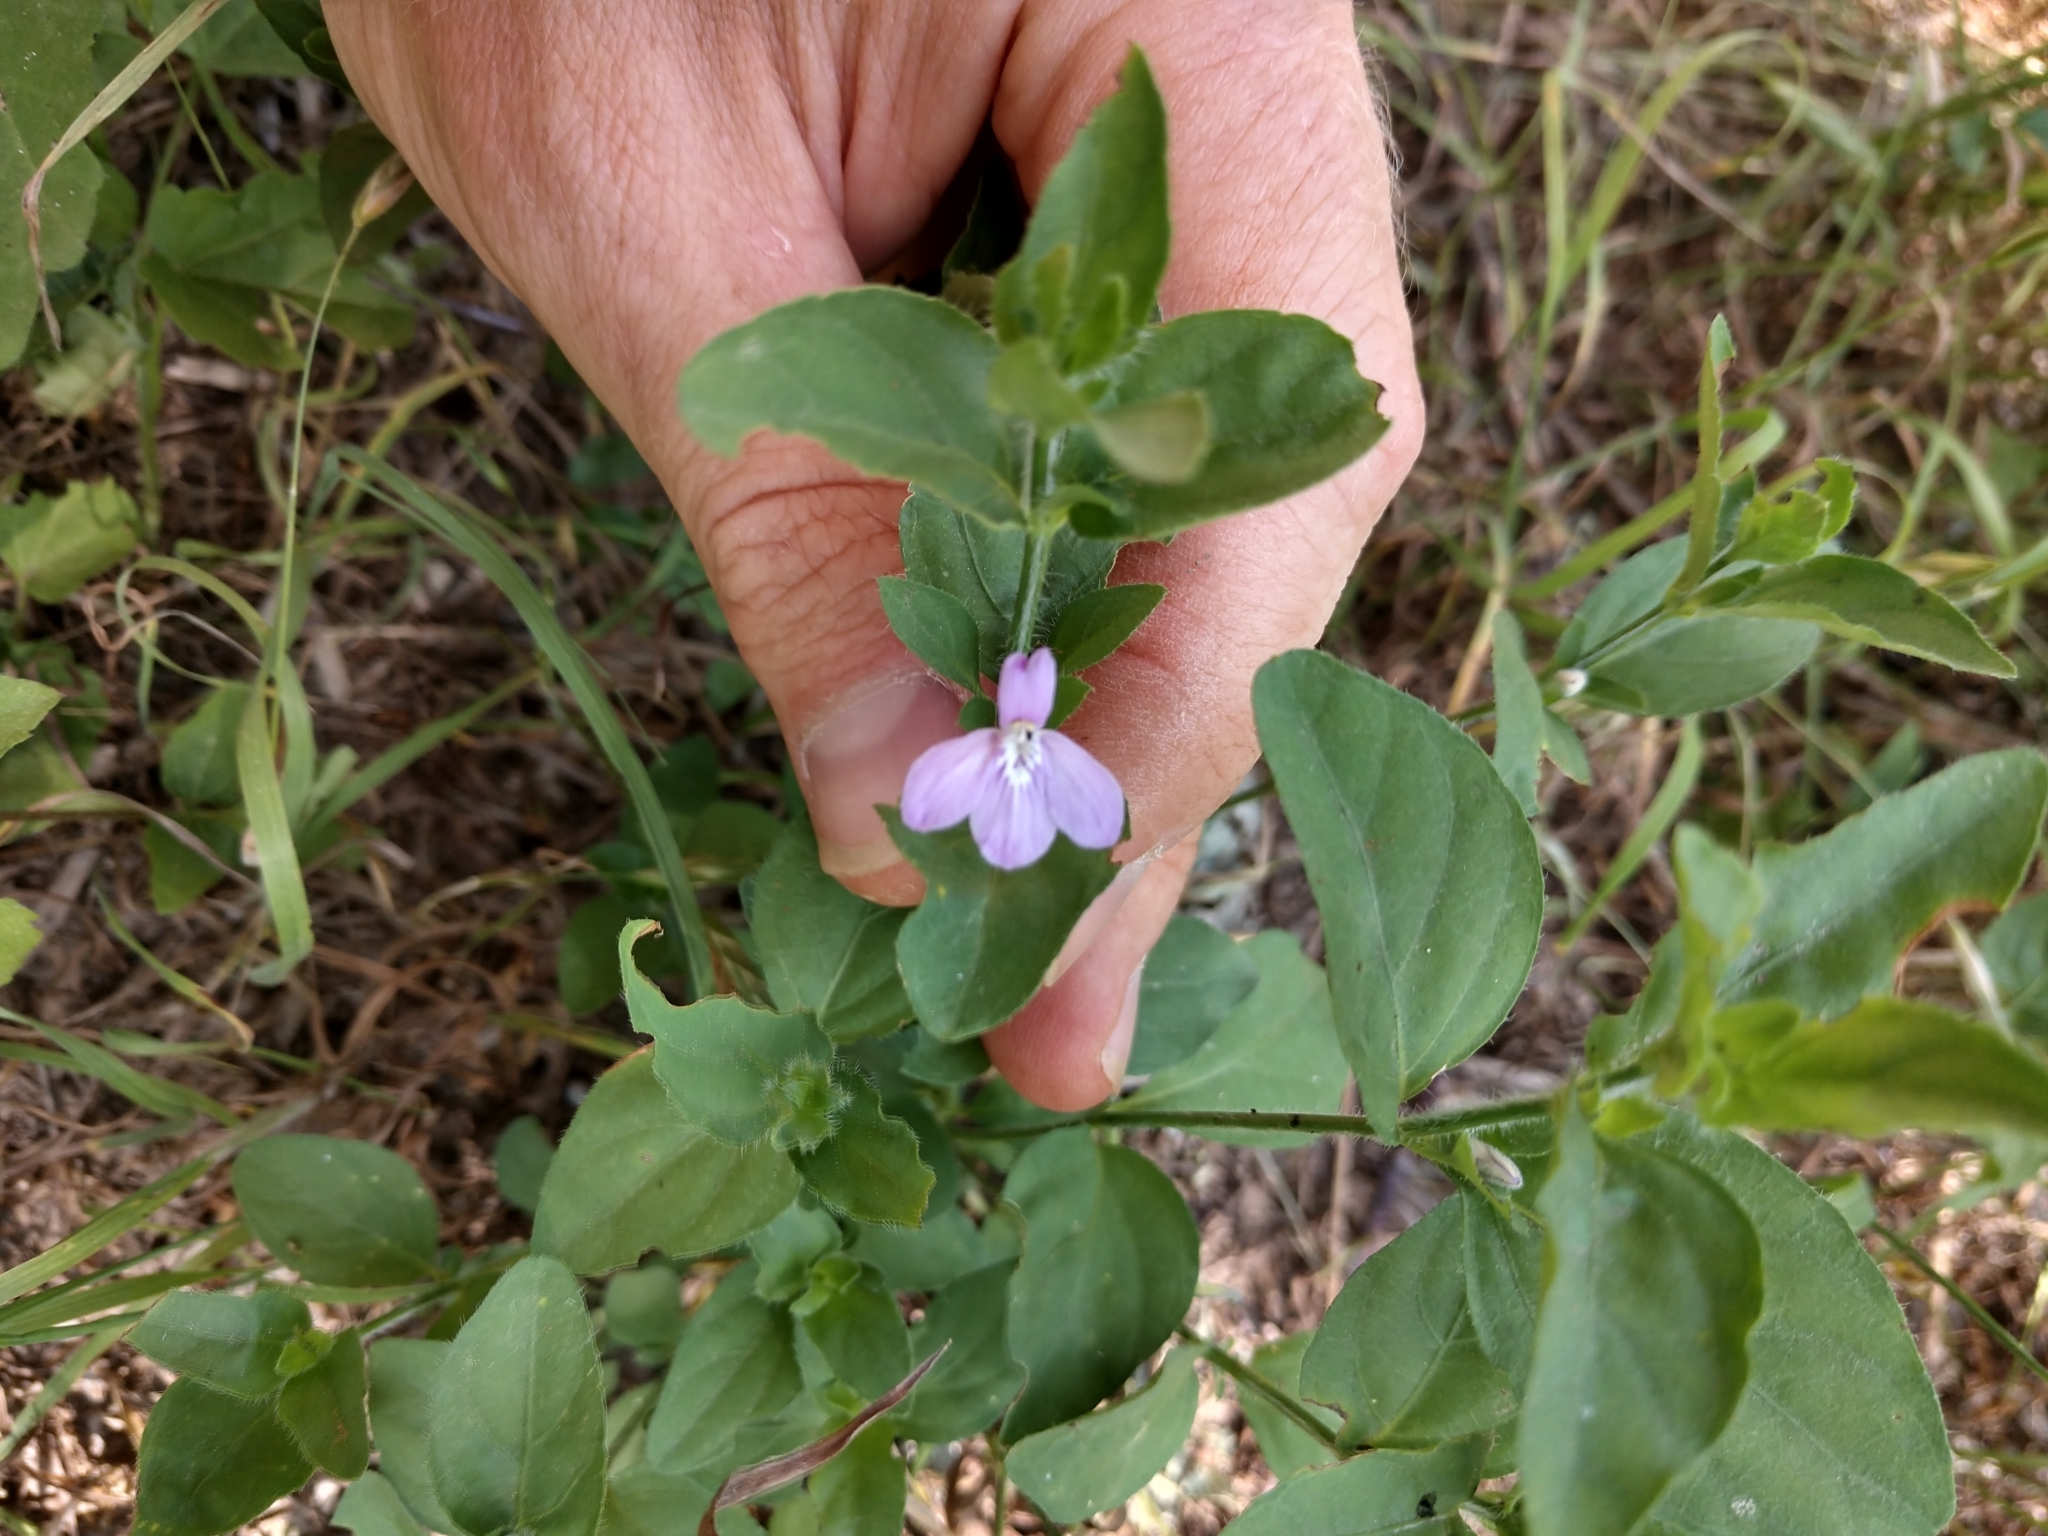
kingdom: Plantae
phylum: Tracheophyta
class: Magnoliopsida
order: Lamiales
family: Acanthaceae
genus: Justicia
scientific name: Justicia pilosella
